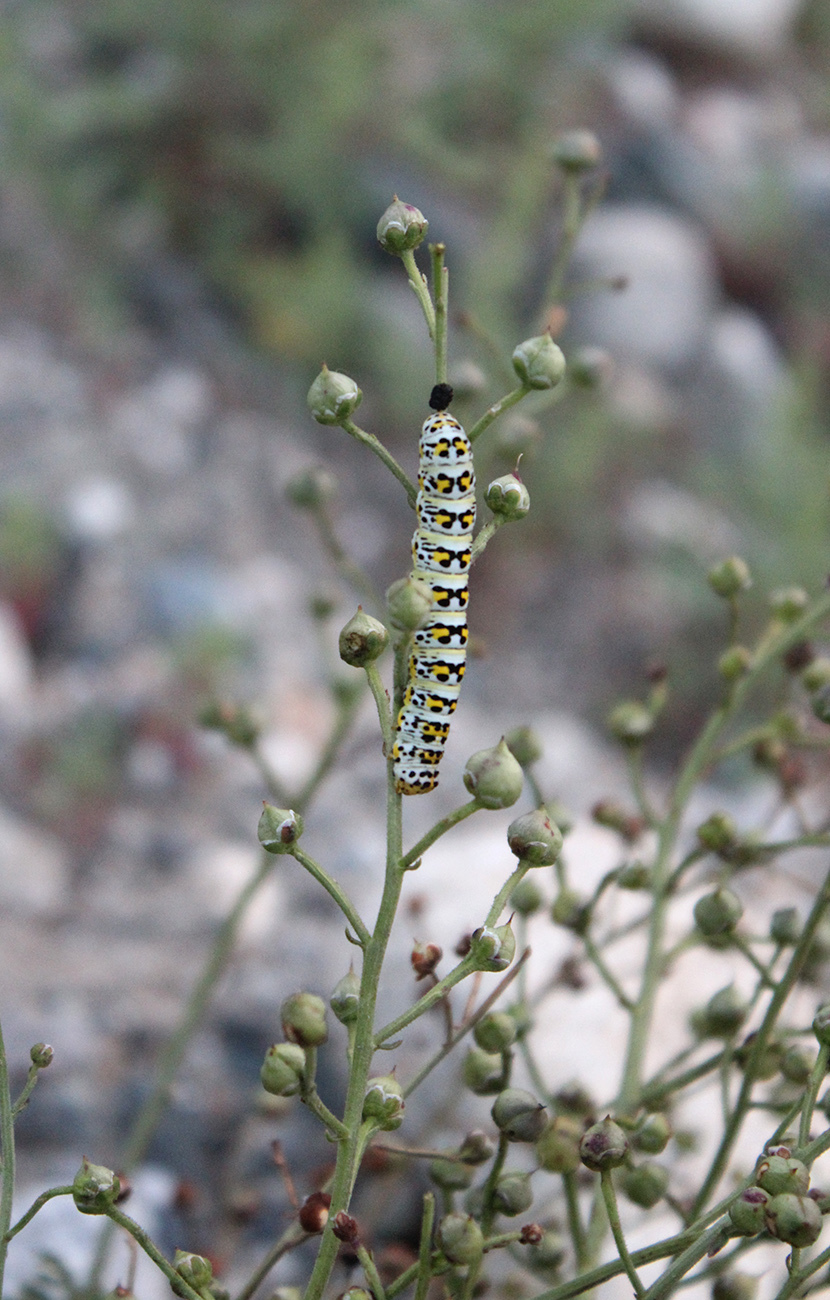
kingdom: Animalia
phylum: Arthropoda
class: Insecta
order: Lepidoptera
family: Noctuidae
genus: Shargacucullia
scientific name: Shargacucullia scrophulariae
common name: Water betony
